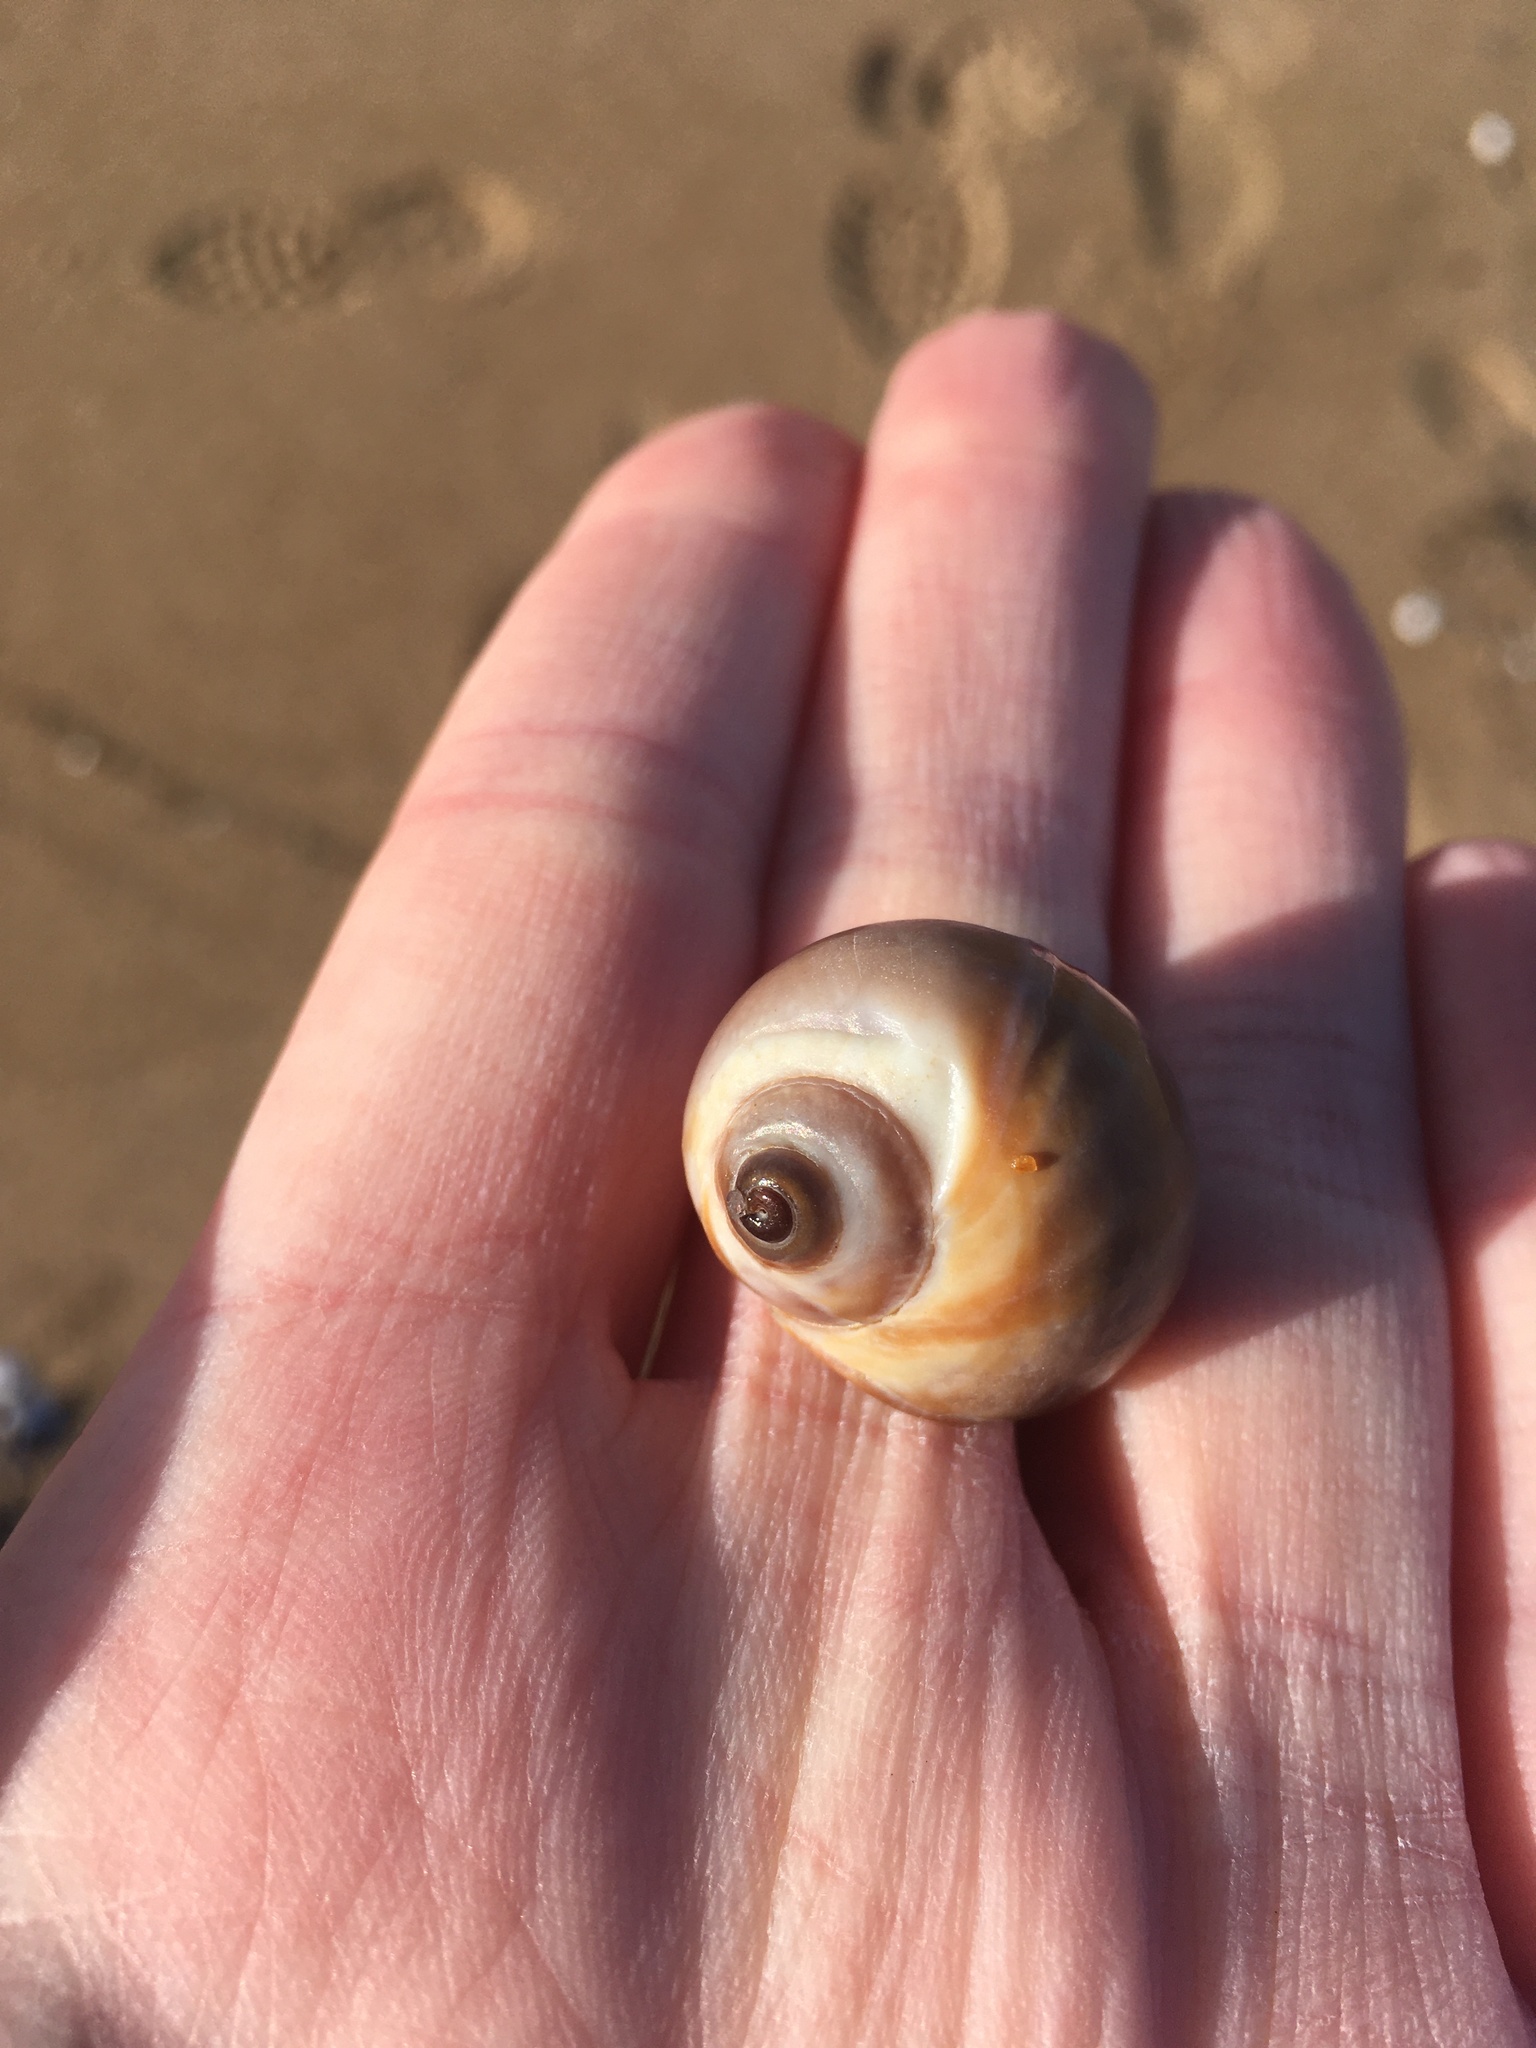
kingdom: Animalia
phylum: Mollusca
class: Gastropoda
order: Littorinimorpha
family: Naticidae
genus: Euspira
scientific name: Euspira heros
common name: Common northern moonsnail
